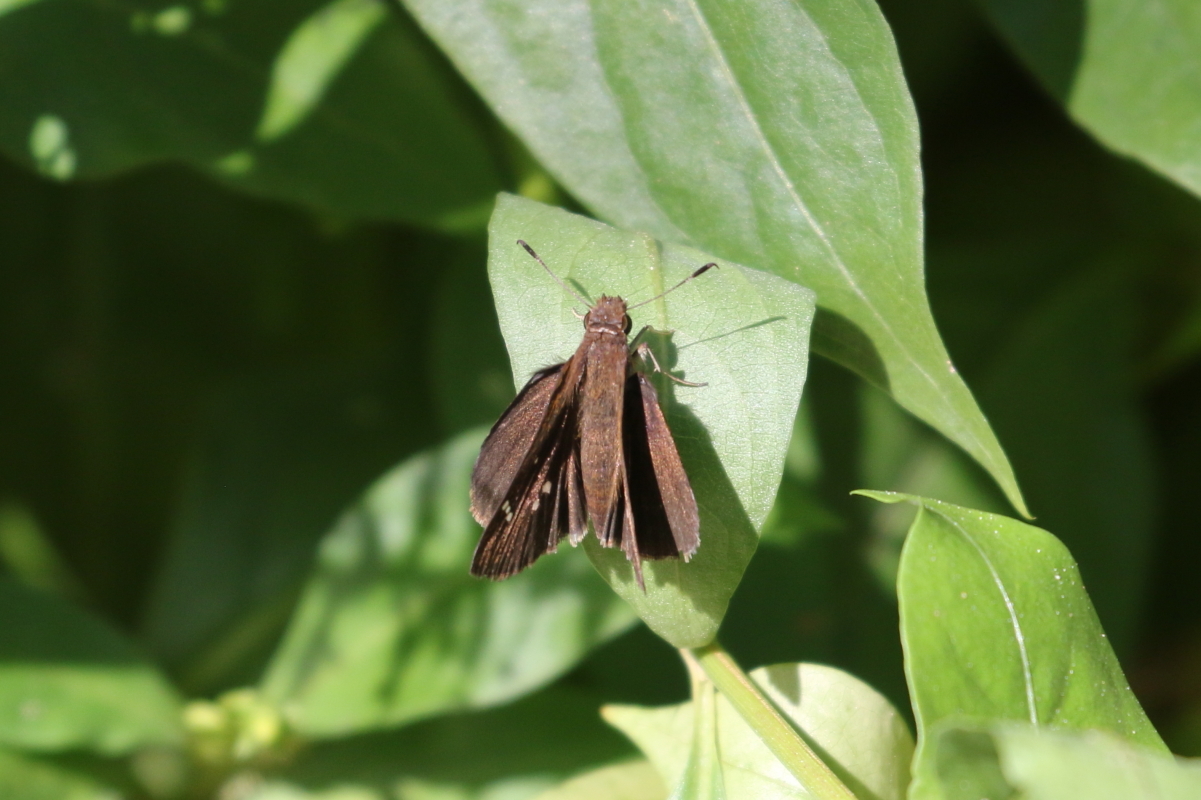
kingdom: Animalia
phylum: Arthropoda
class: Insecta
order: Lepidoptera
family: Hesperiidae
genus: Lerema
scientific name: Lerema accius
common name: Clouded skipper
